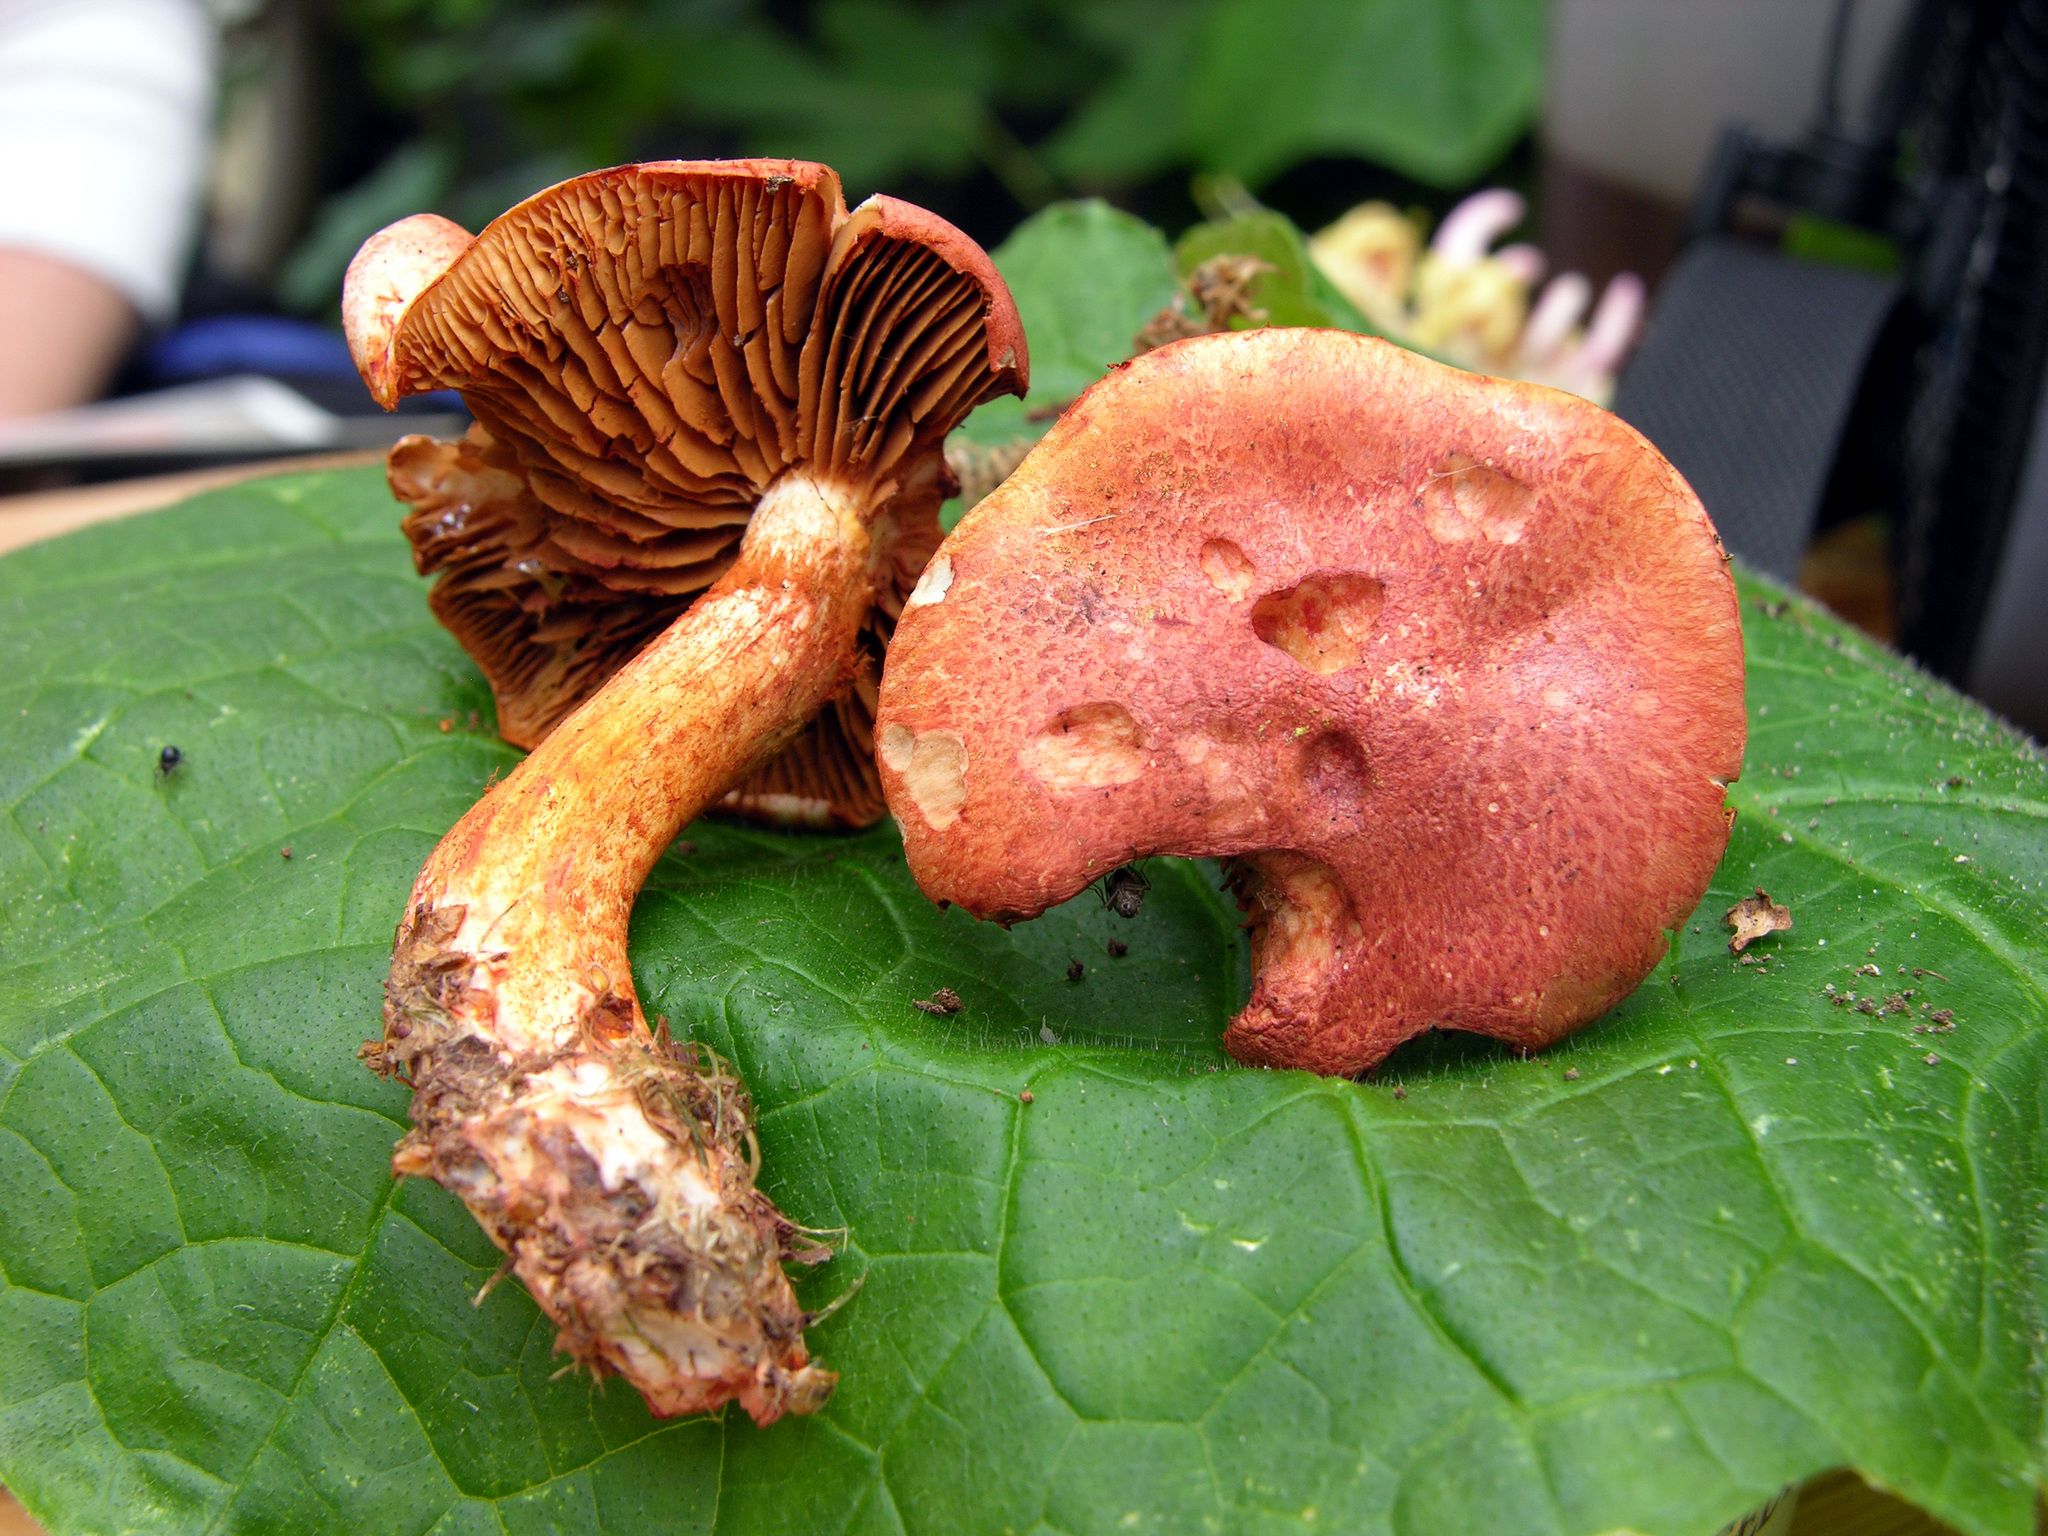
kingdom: Fungi
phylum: Basidiomycota
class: Agaricomycetes
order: Agaricales
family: Cortinariaceae
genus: Cortinarius
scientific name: Cortinarius bolaris
